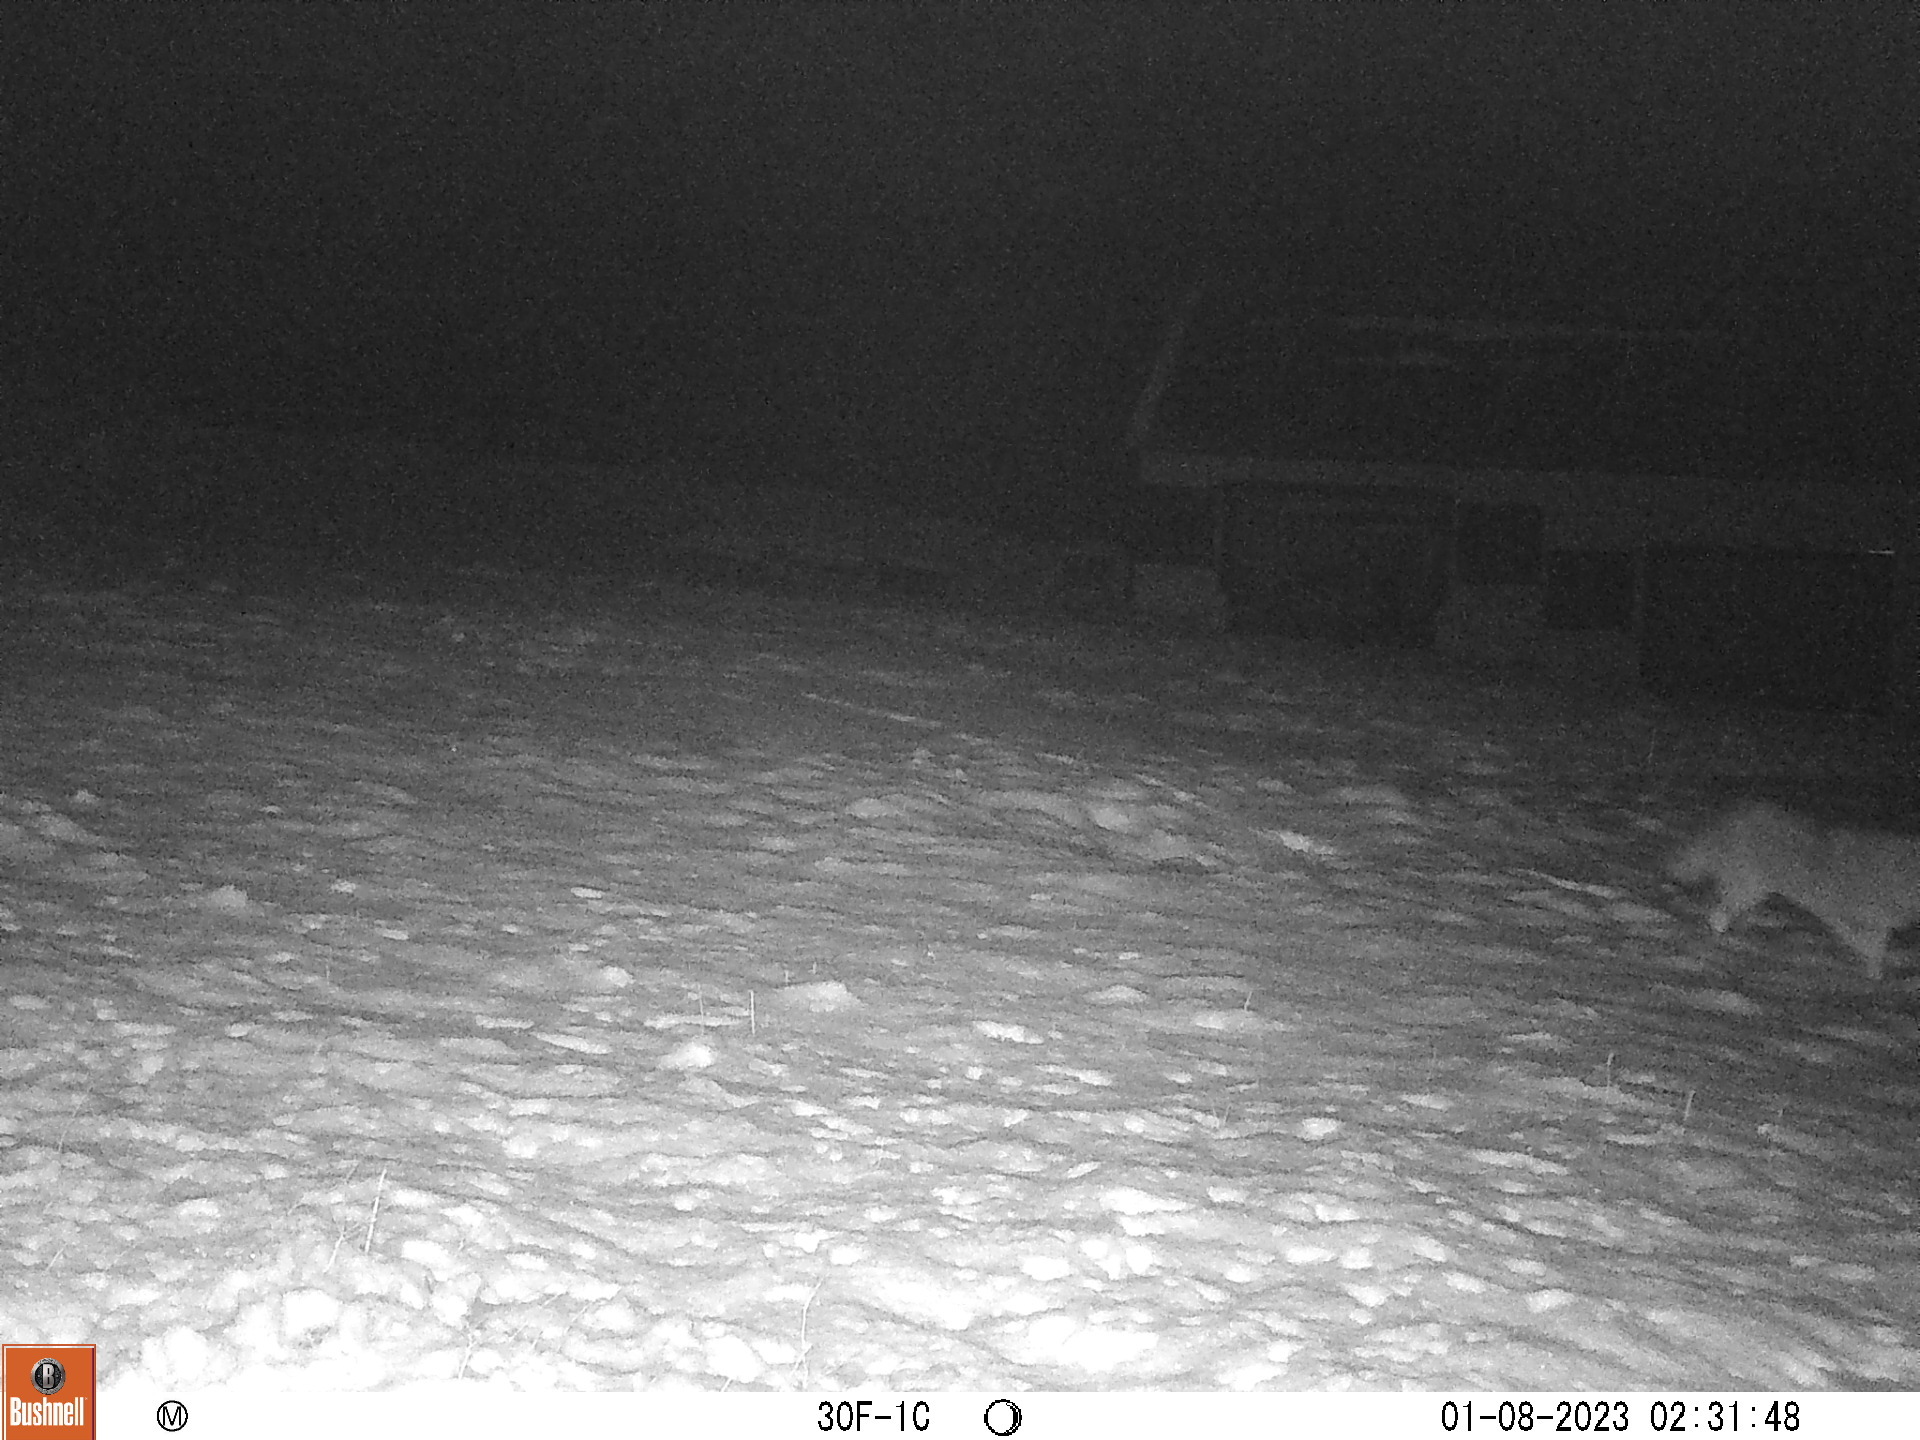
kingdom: Animalia
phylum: Chordata
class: Mammalia
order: Carnivora
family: Canidae
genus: Canis
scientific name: Canis latrans
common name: Coyote
